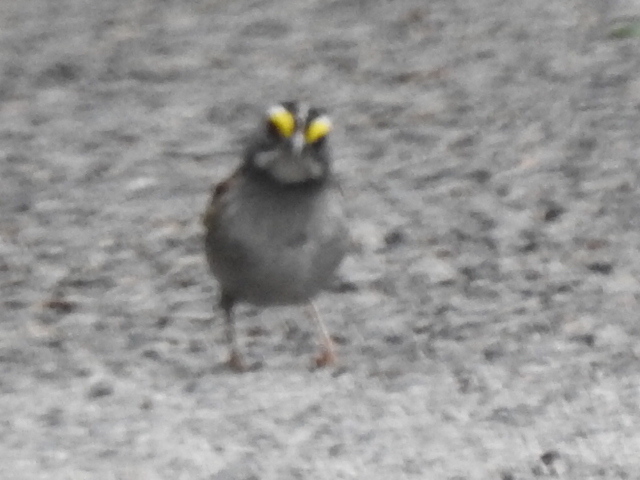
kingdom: Animalia
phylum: Chordata
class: Aves
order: Passeriformes
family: Passerellidae
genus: Zonotrichia
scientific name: Zonotrichia albicollis
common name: White-throated sparrow
